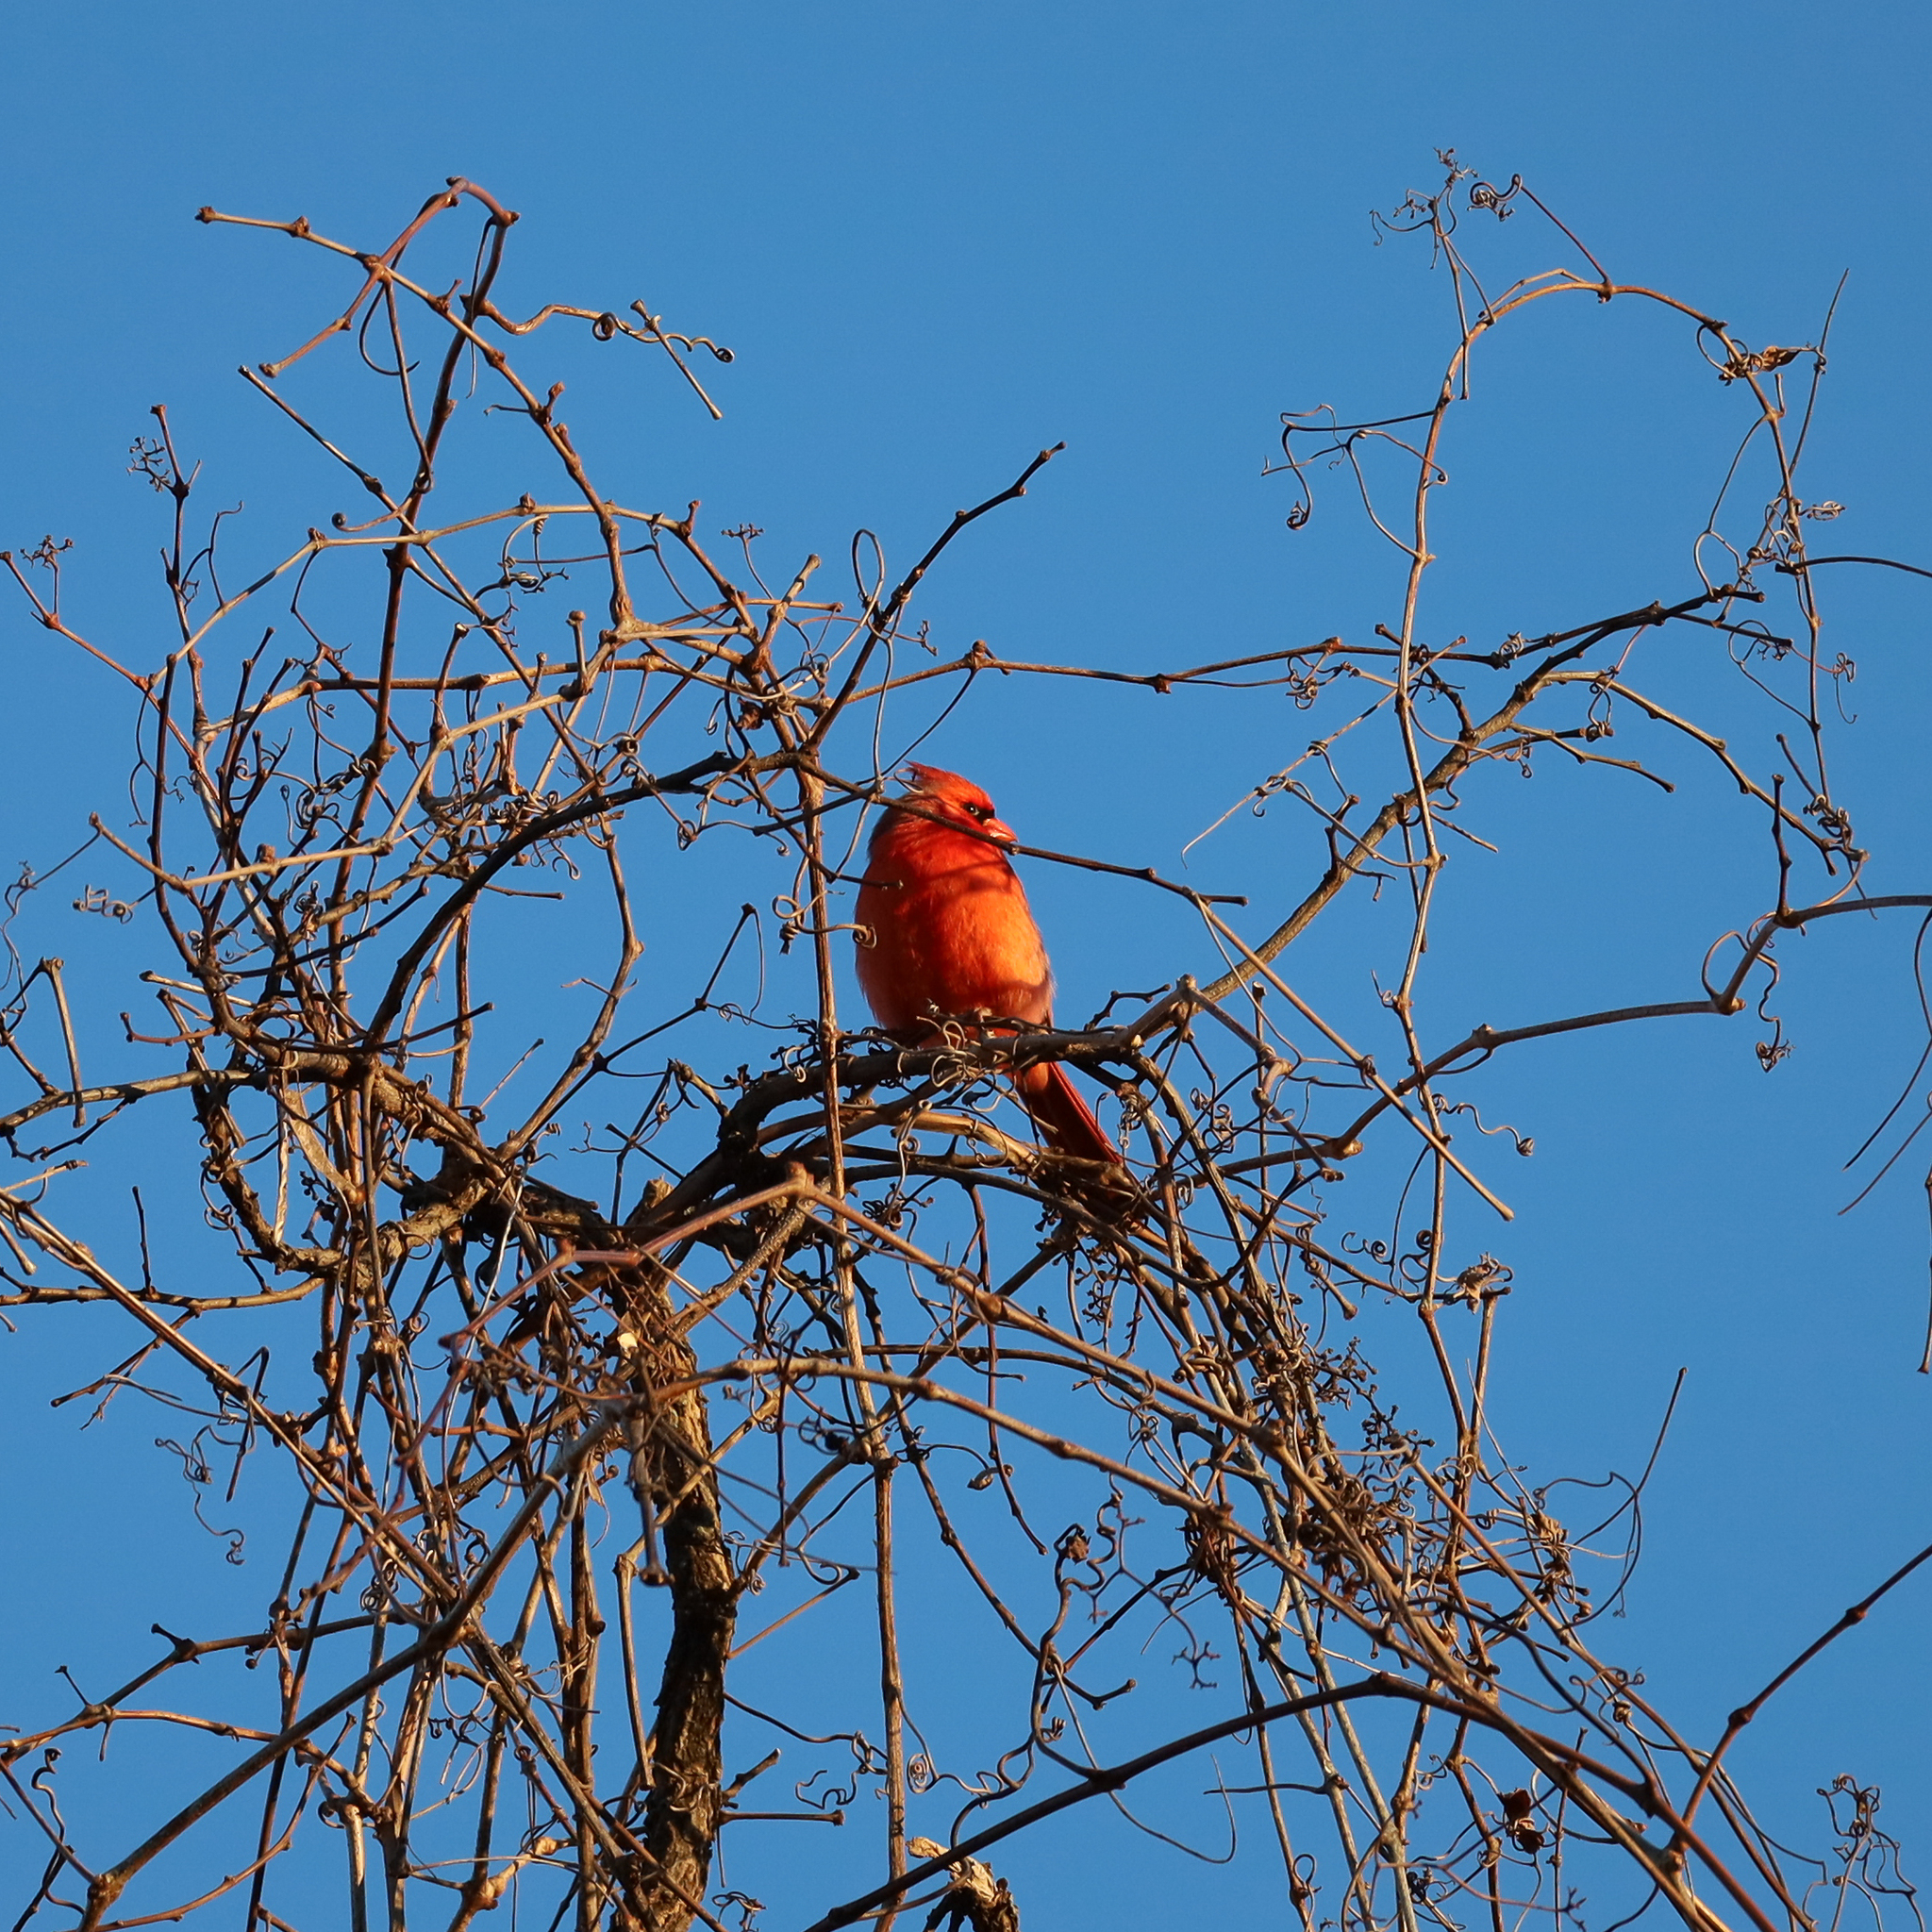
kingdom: Animalia
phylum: Chordata
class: Aves
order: Passeriformes
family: Cardinalidae
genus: Cardinalis
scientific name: Cardinalis cardinalis
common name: Northern cardinal
